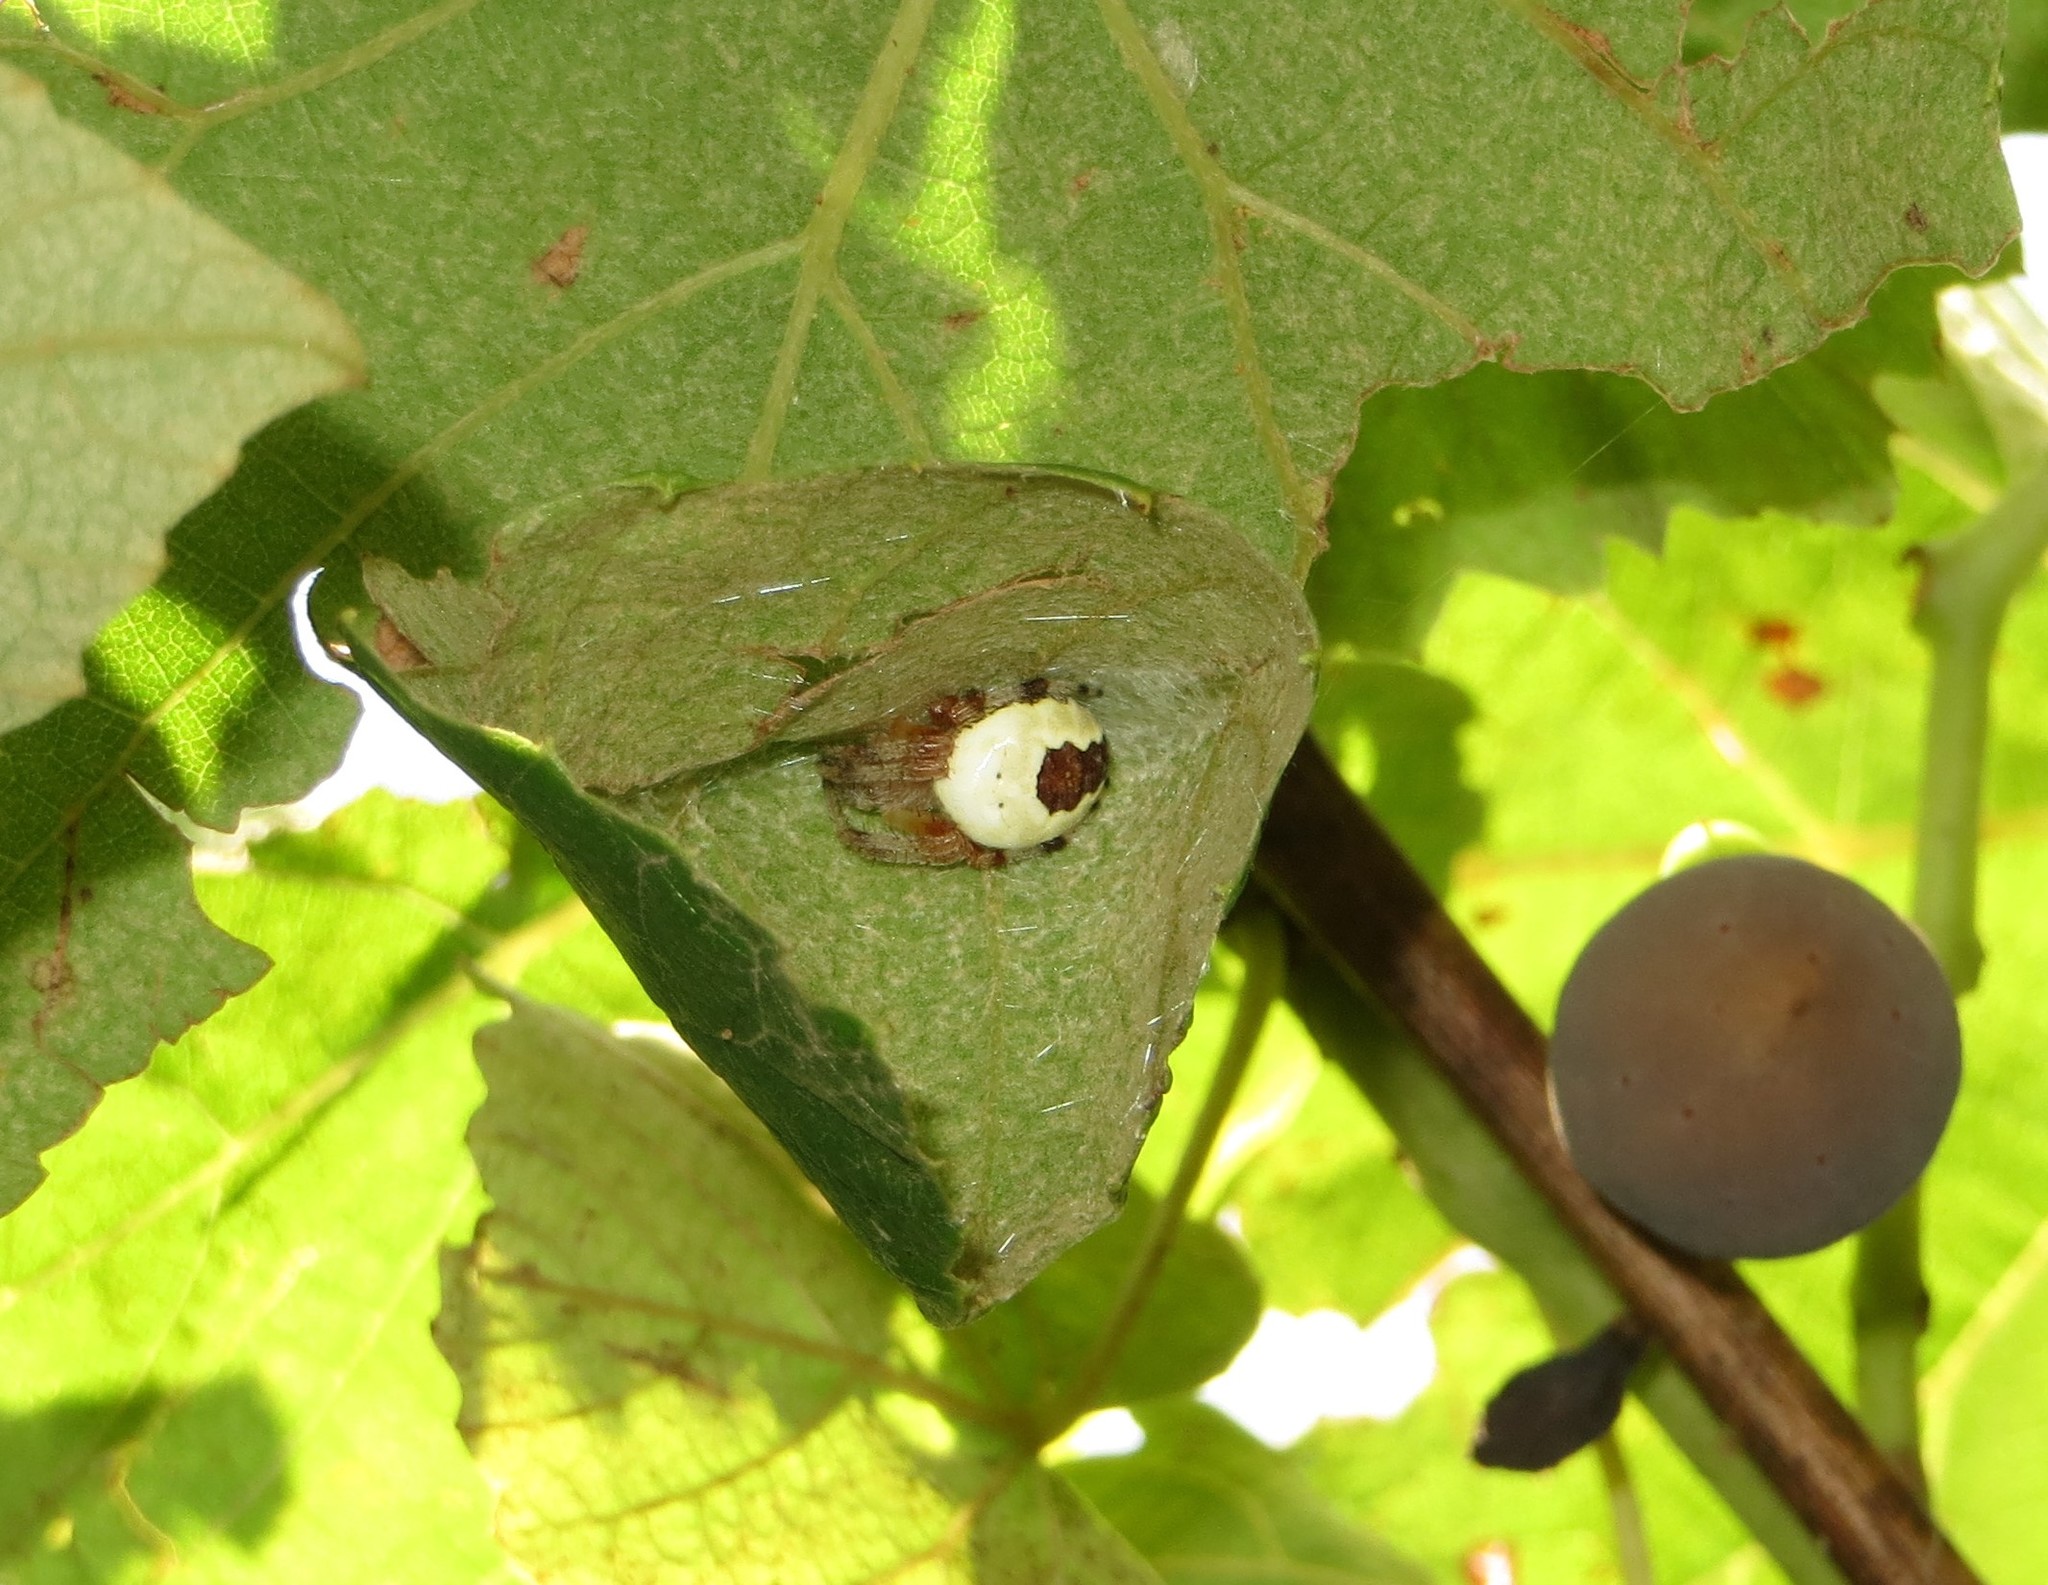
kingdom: Animalia
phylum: Arthropoda
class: Arachnida
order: Araneae
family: Araneidae
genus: Araneus
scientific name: Araneus marmoreus
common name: Marbled orbweaver
